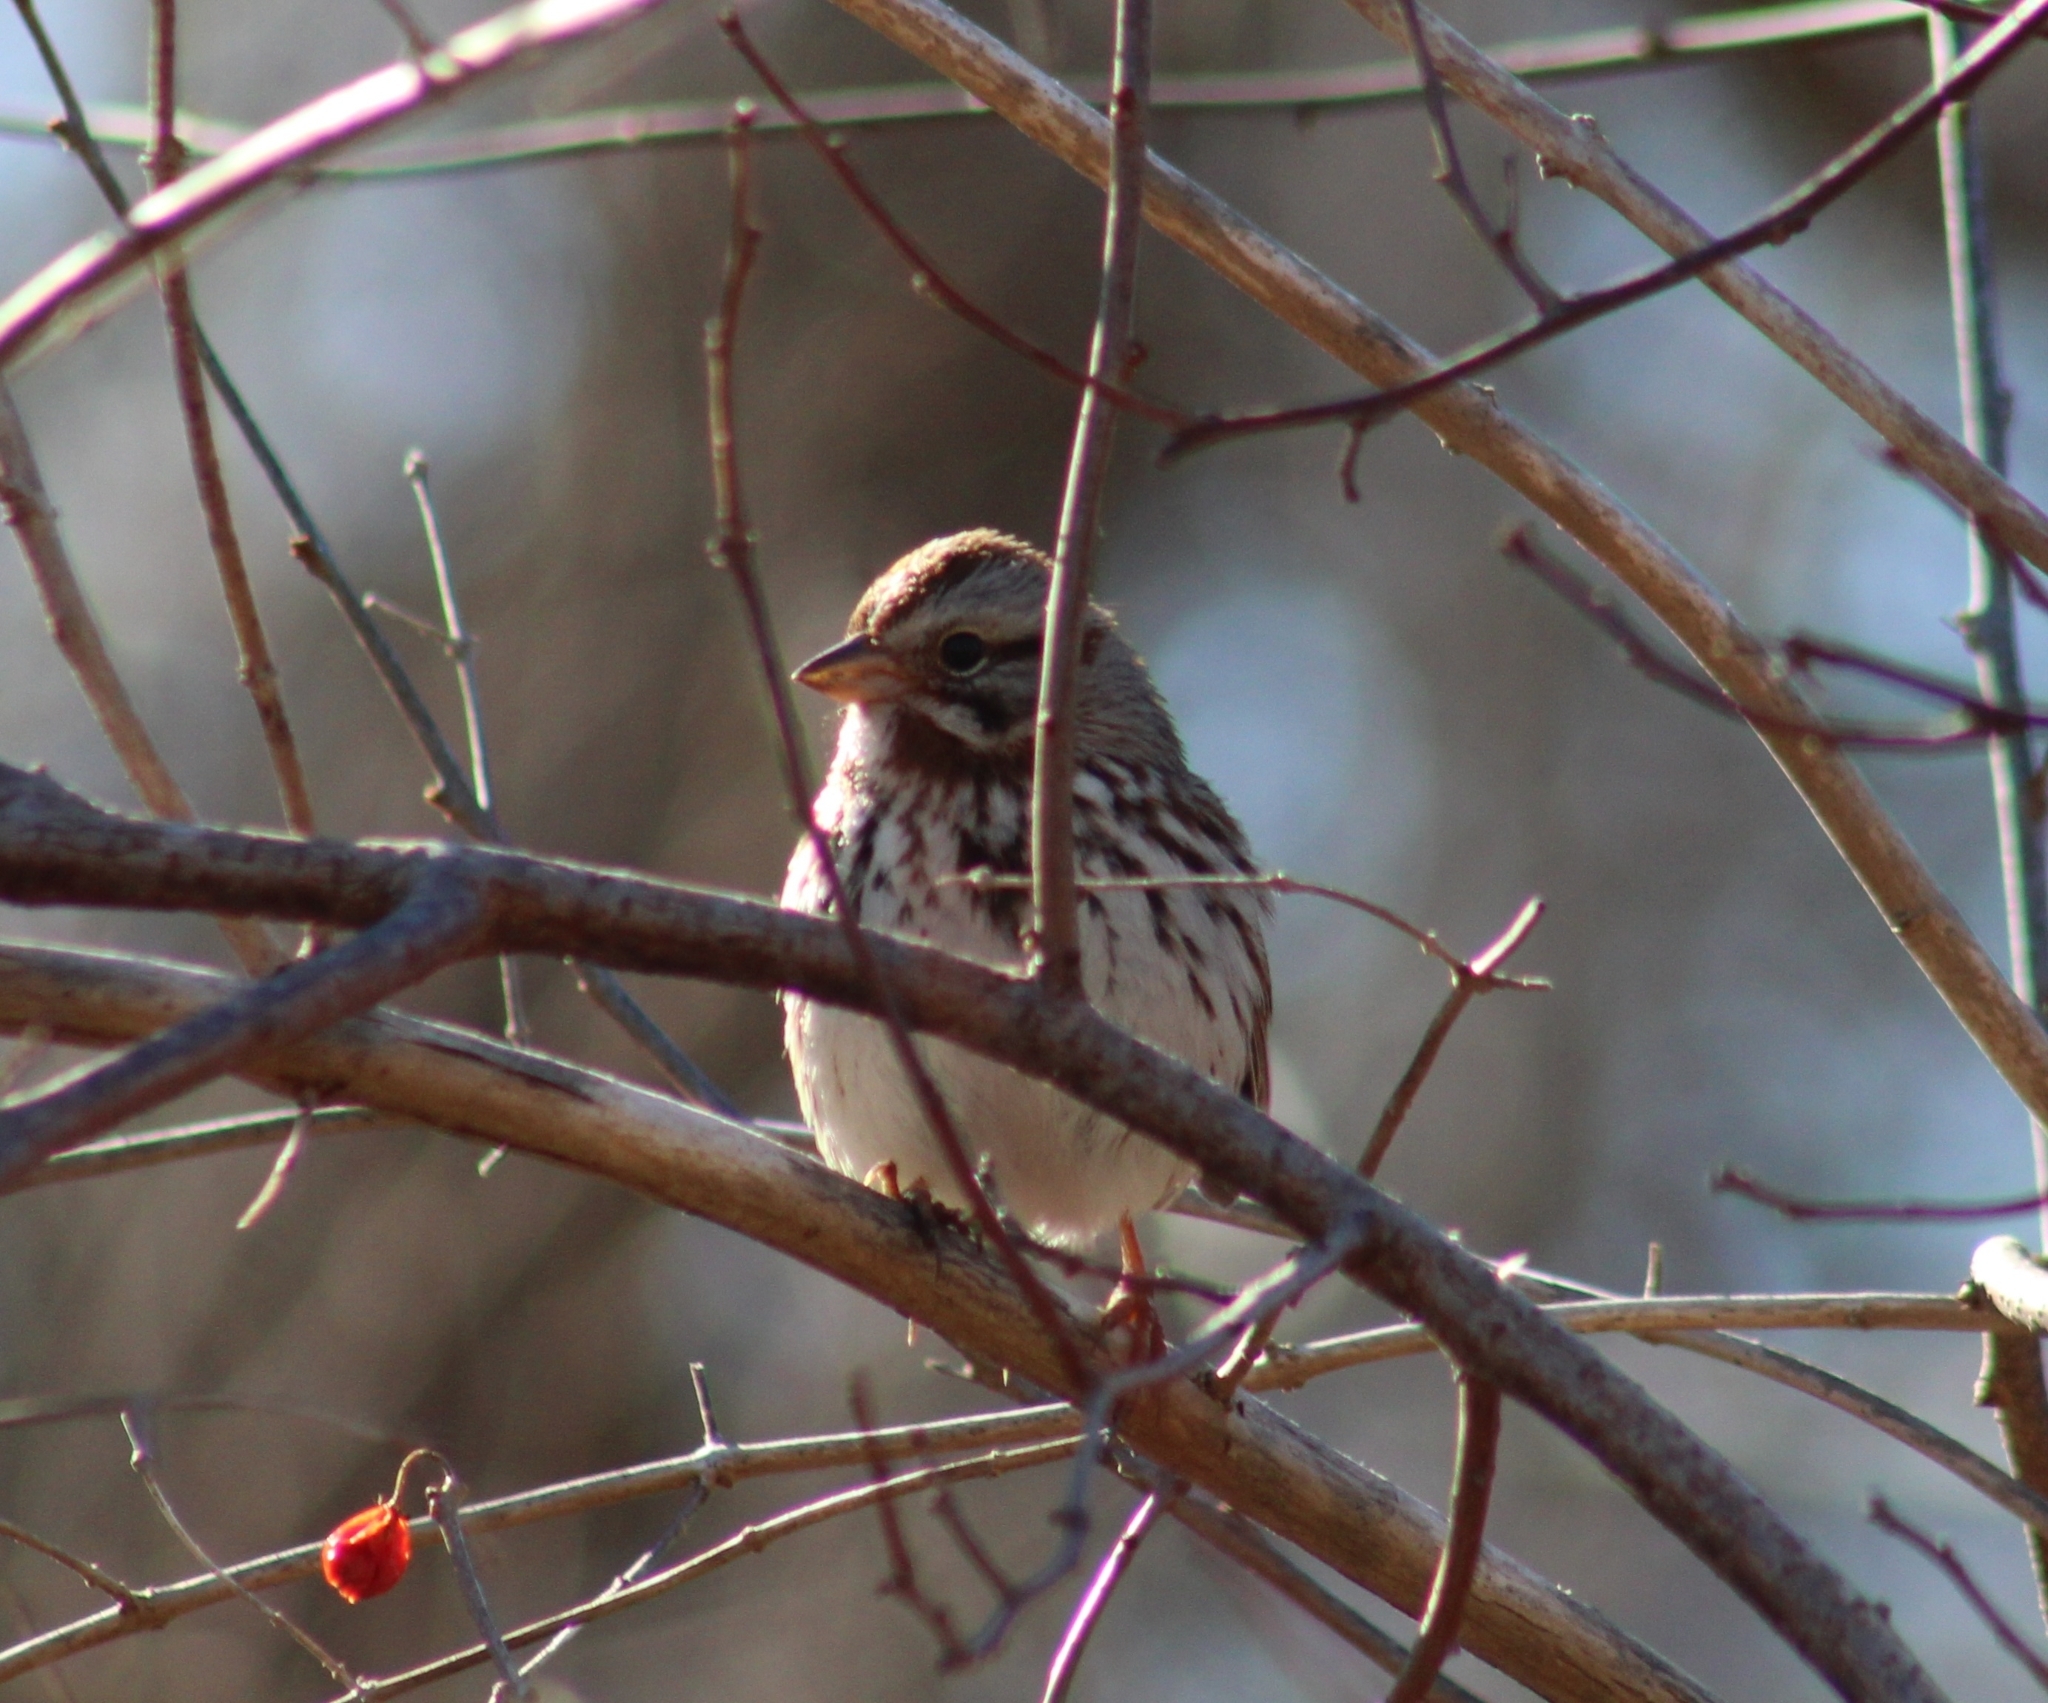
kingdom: Animalia
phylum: Chordata
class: Aves
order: Passeriformes
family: Passerellidae
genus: Melospiza
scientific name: Melospiza melodia
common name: Song sparrow
